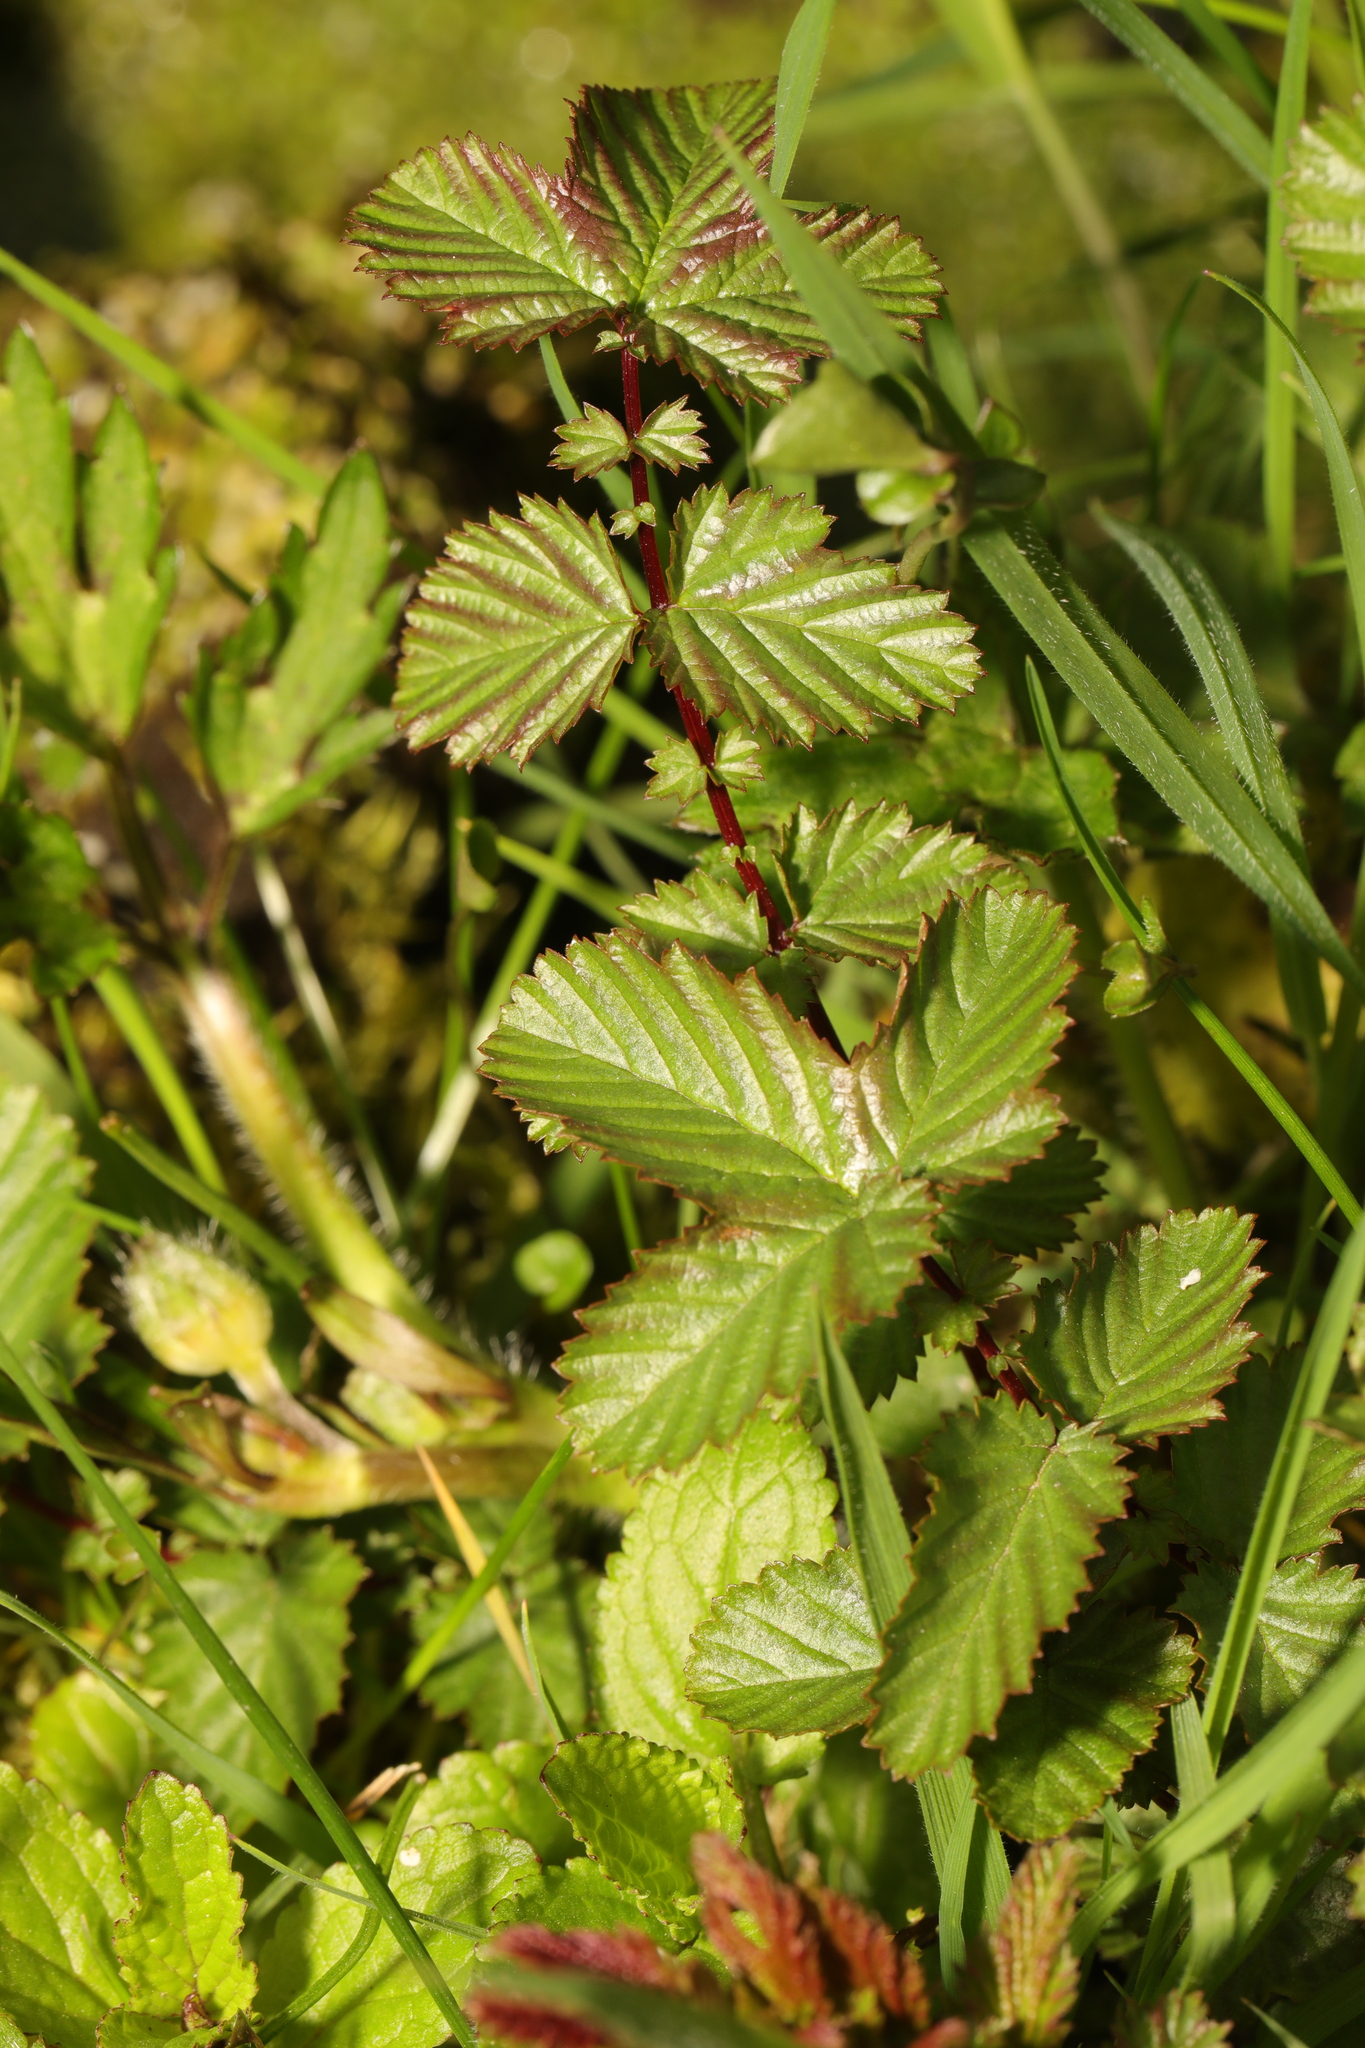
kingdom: Plantae
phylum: Tracheophyta
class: Magnoliopsida
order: Rosales
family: Rosaceae
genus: Filipendula
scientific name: Filipendula ulmaria
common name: Meadowsweet
